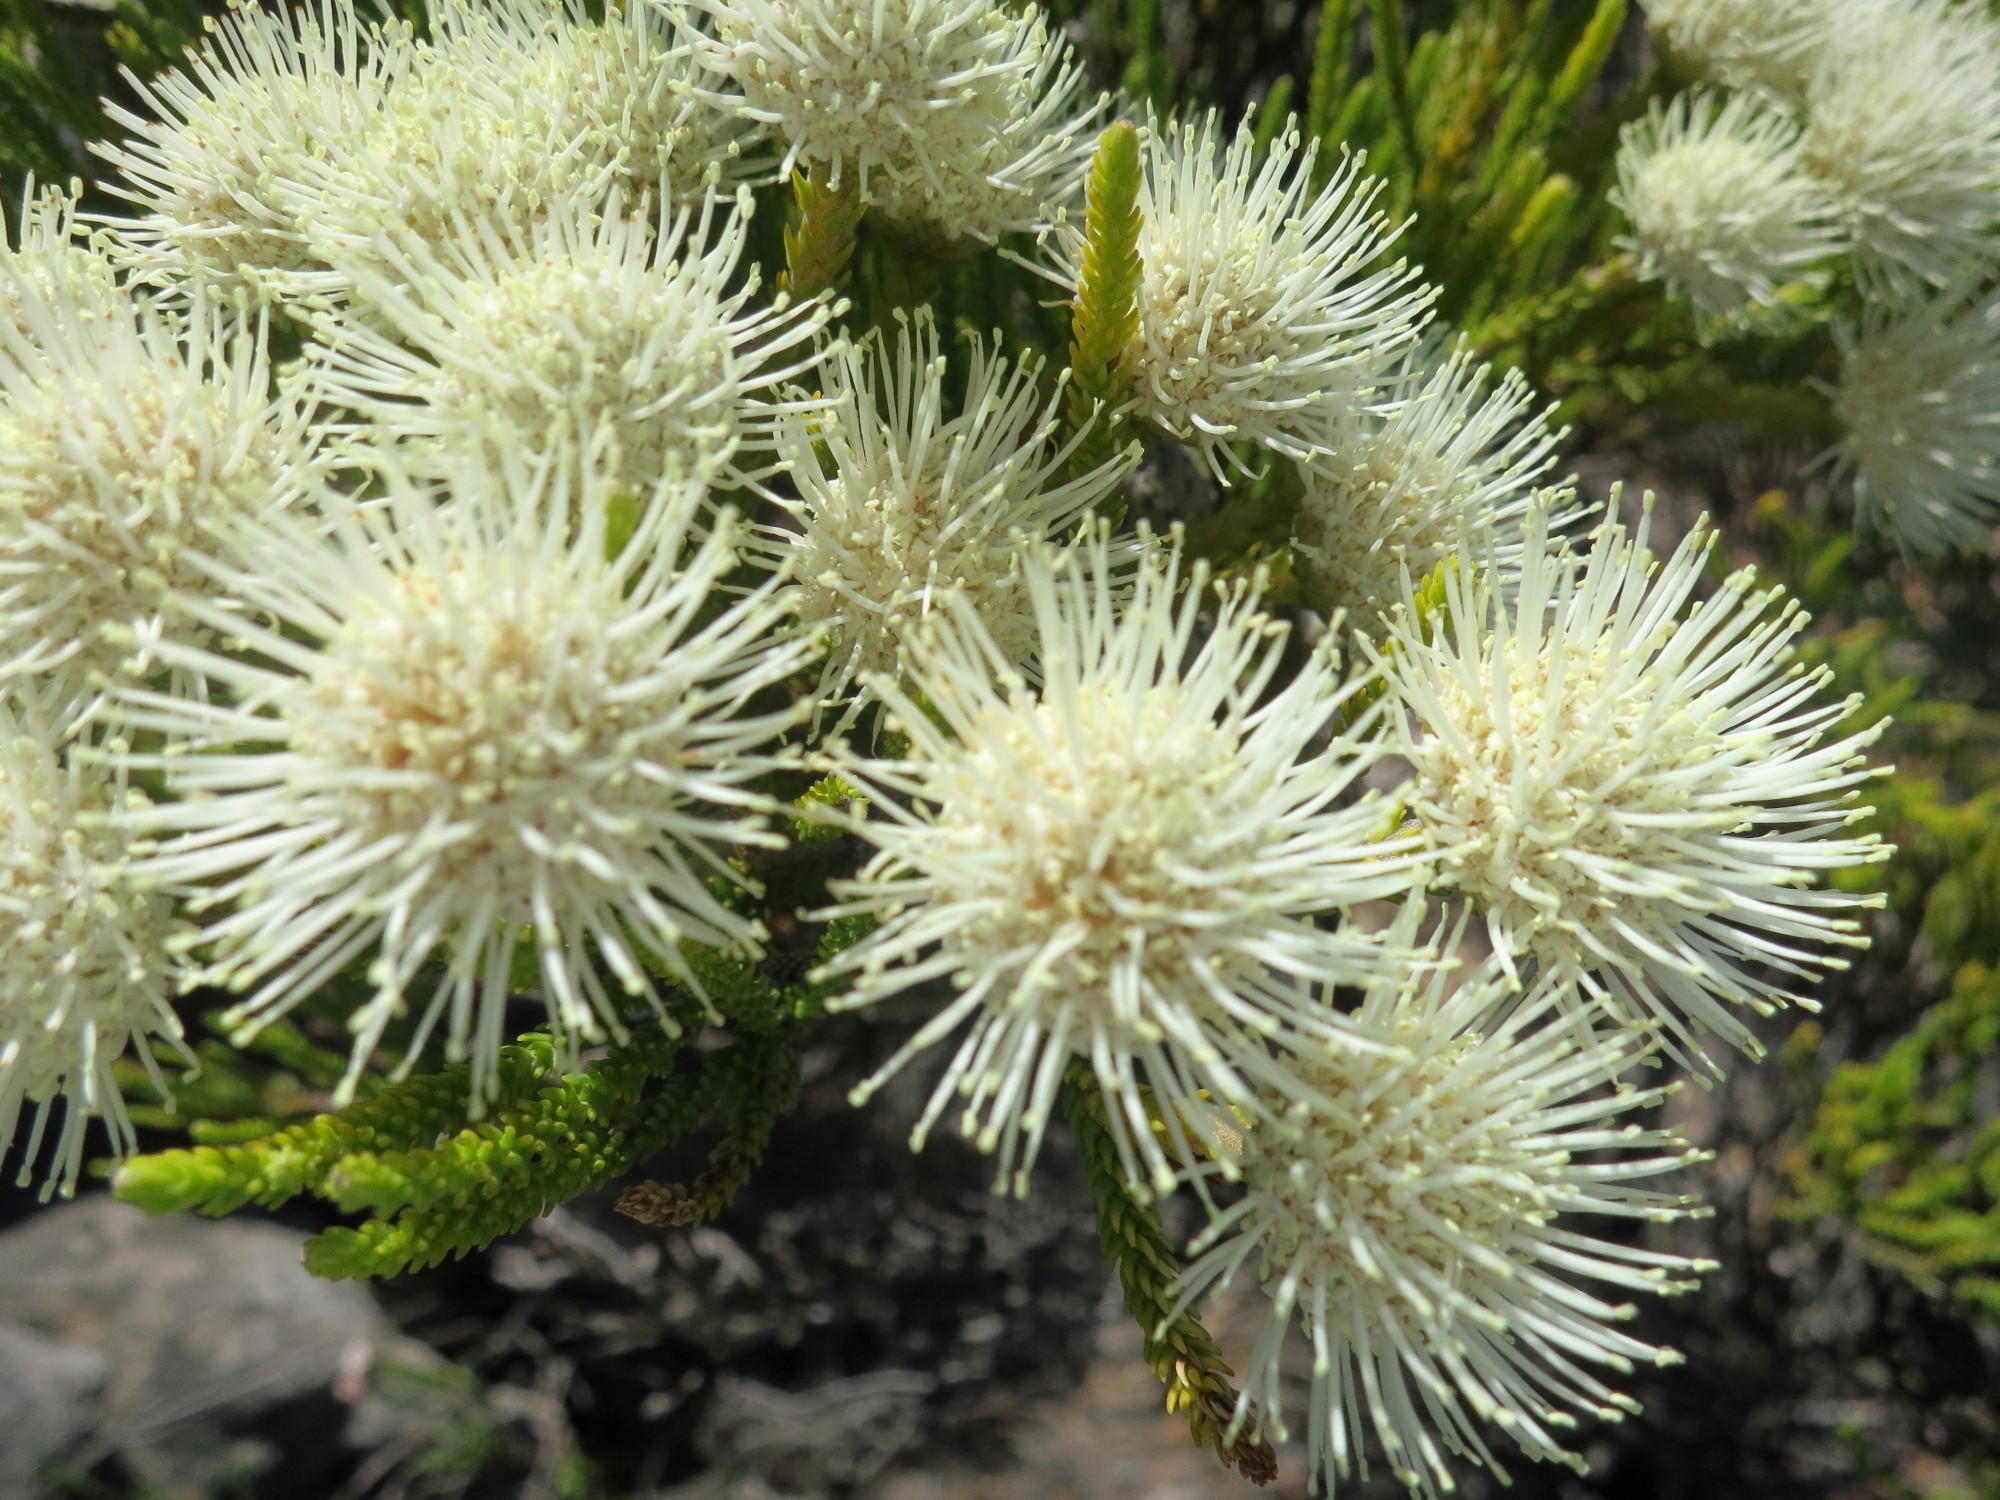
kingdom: Plantae
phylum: Tracheophyta
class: Magnoliopsida
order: Bruniales
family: Bruniaceae
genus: Brunia
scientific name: Brunia noduliflora
